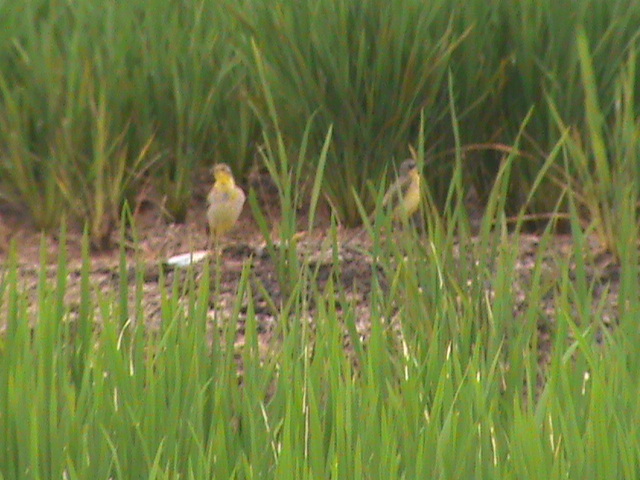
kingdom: Animalia
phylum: Chordata
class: Aves
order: Passeriformes
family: Motacillidae
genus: Motacilla
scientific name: Motacilla flava
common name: Western yellow wagtail
